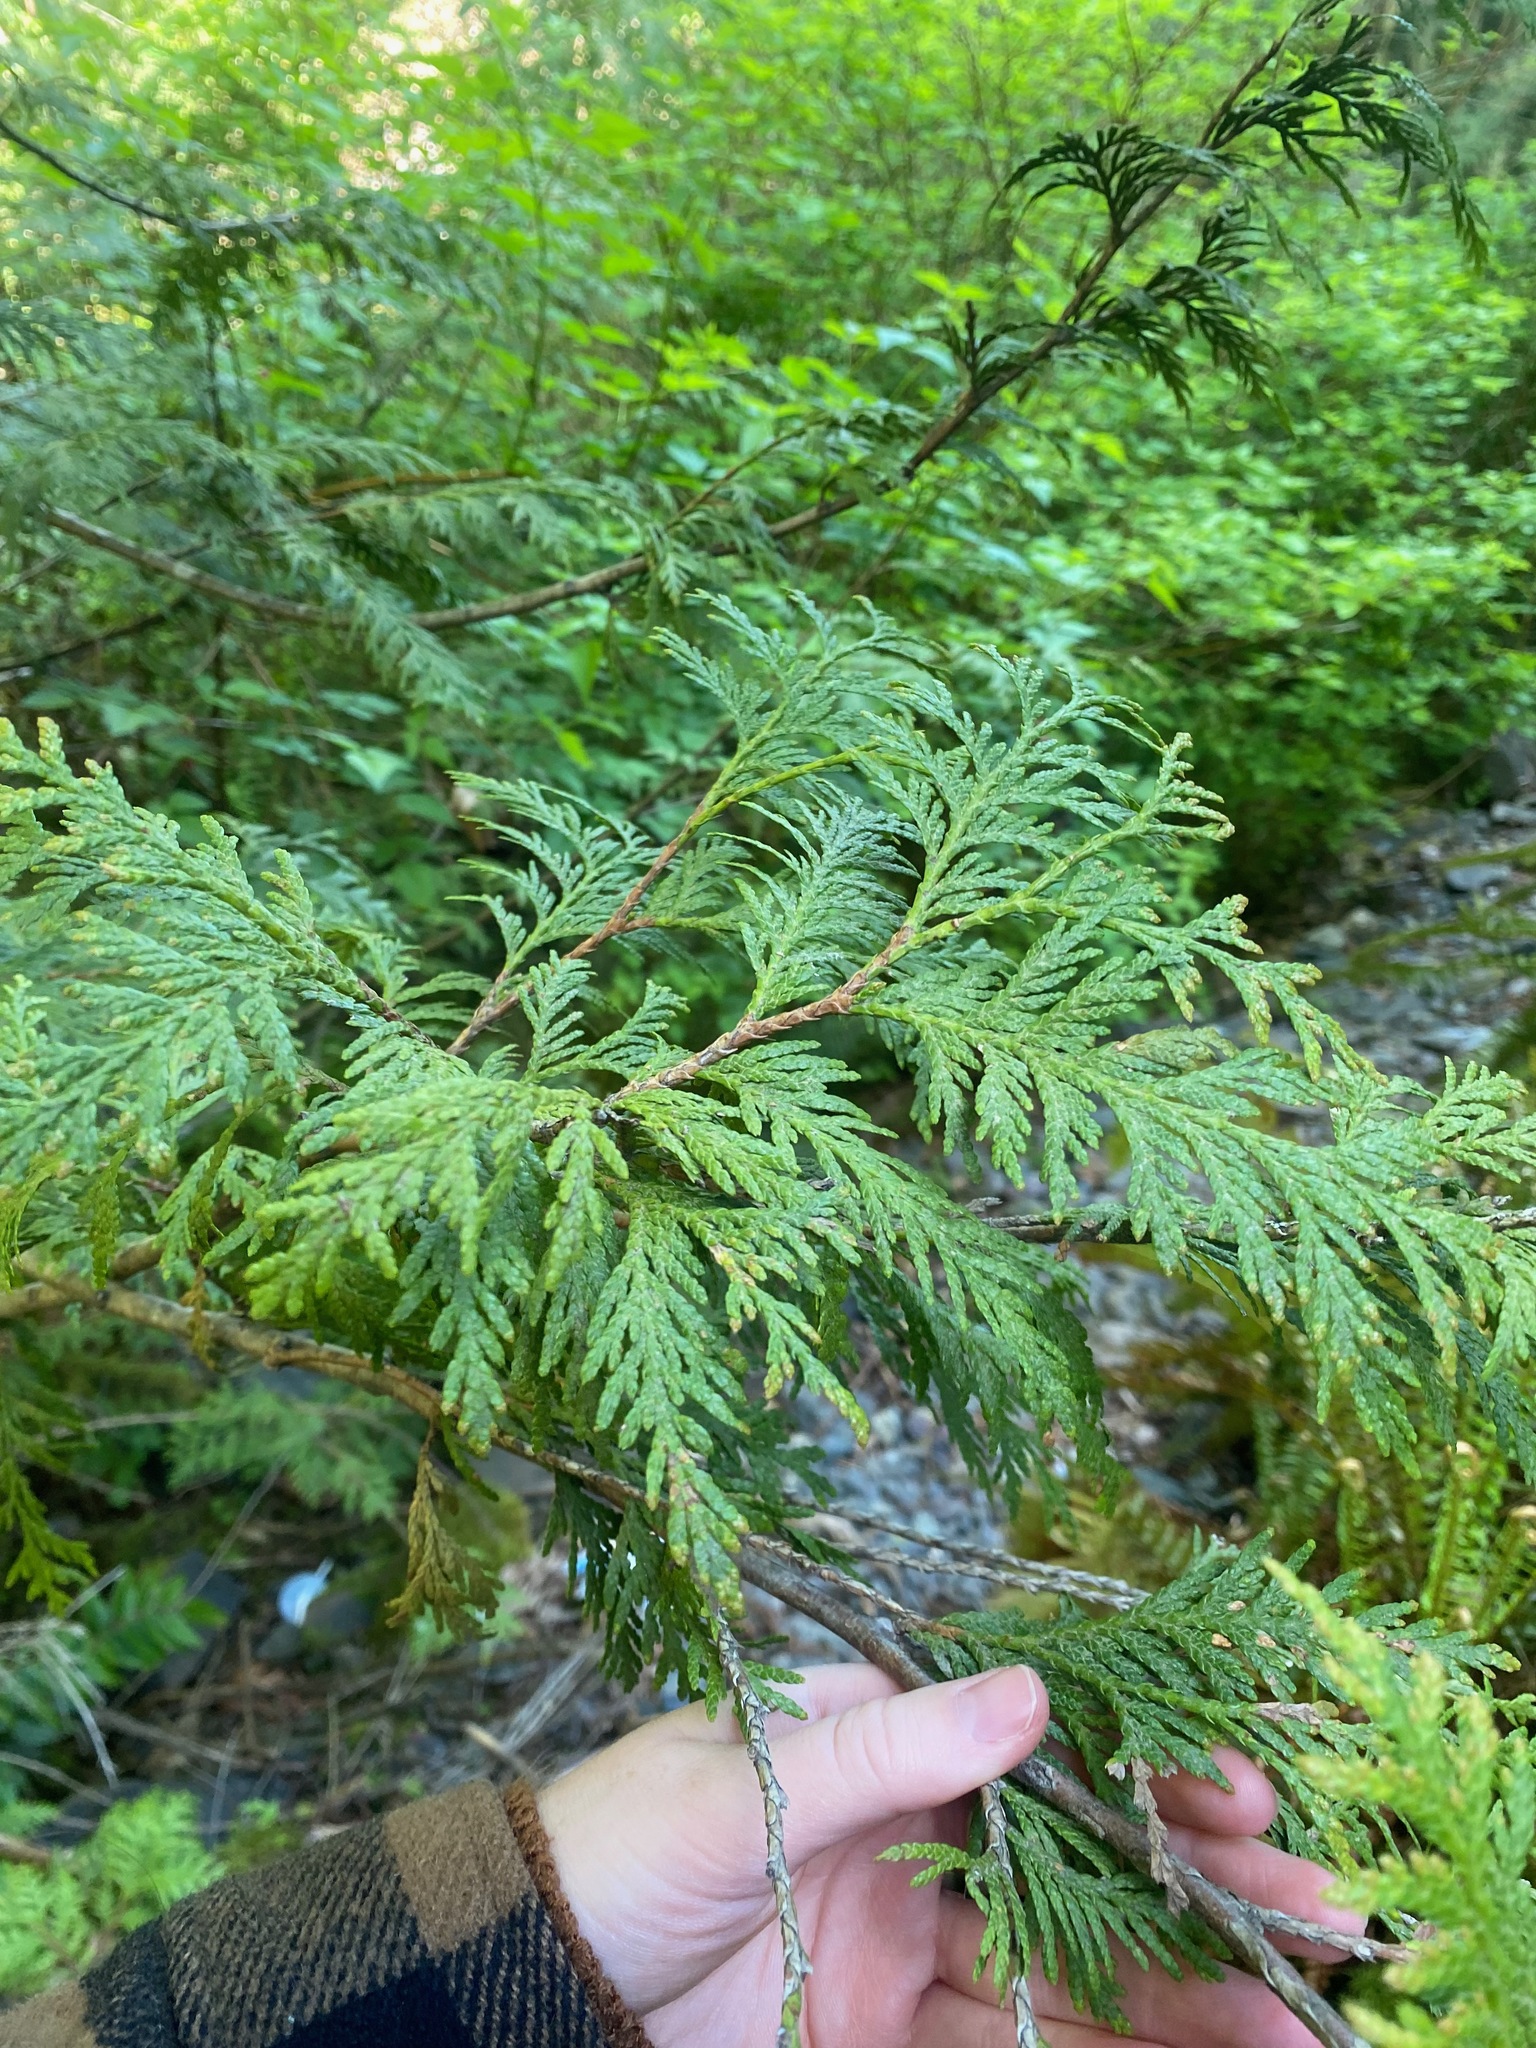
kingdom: Plantae
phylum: Tracheophyta
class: Pinopsida
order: Pinales
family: Cupressaceae
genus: Thuja
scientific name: Thuja plicata
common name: Western red-cedar
